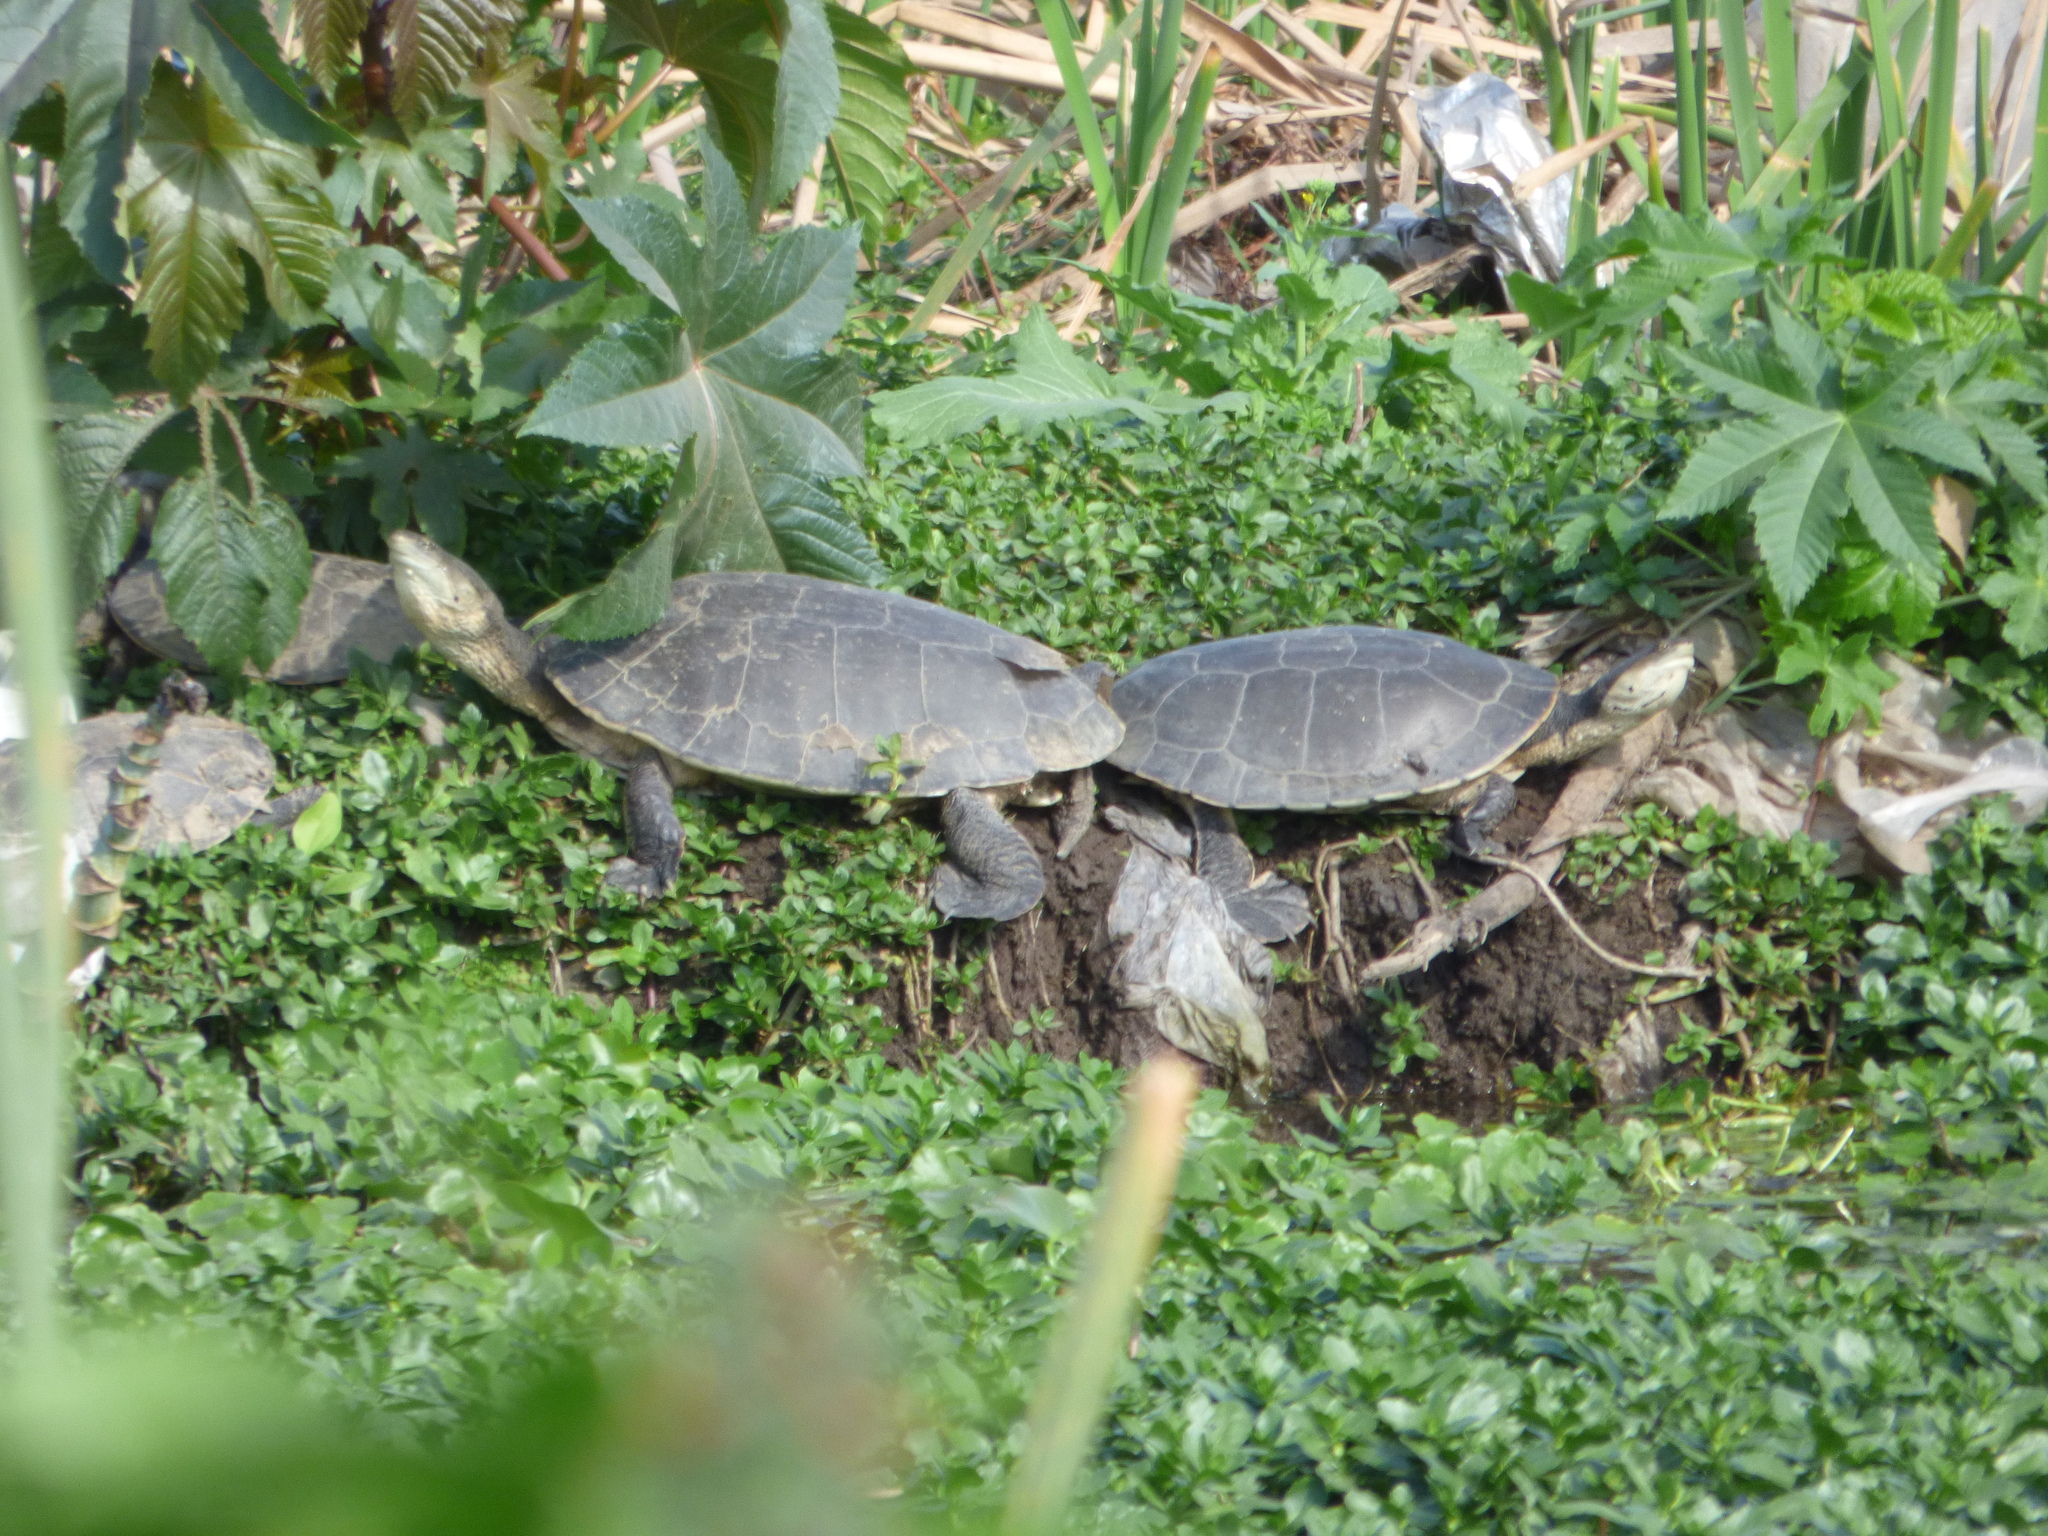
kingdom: Animalia
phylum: Chordata
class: Testudines
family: Chelidae
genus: Phrynops
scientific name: Phrynops hilarii
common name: Side-necked turtle of saint hillaire
